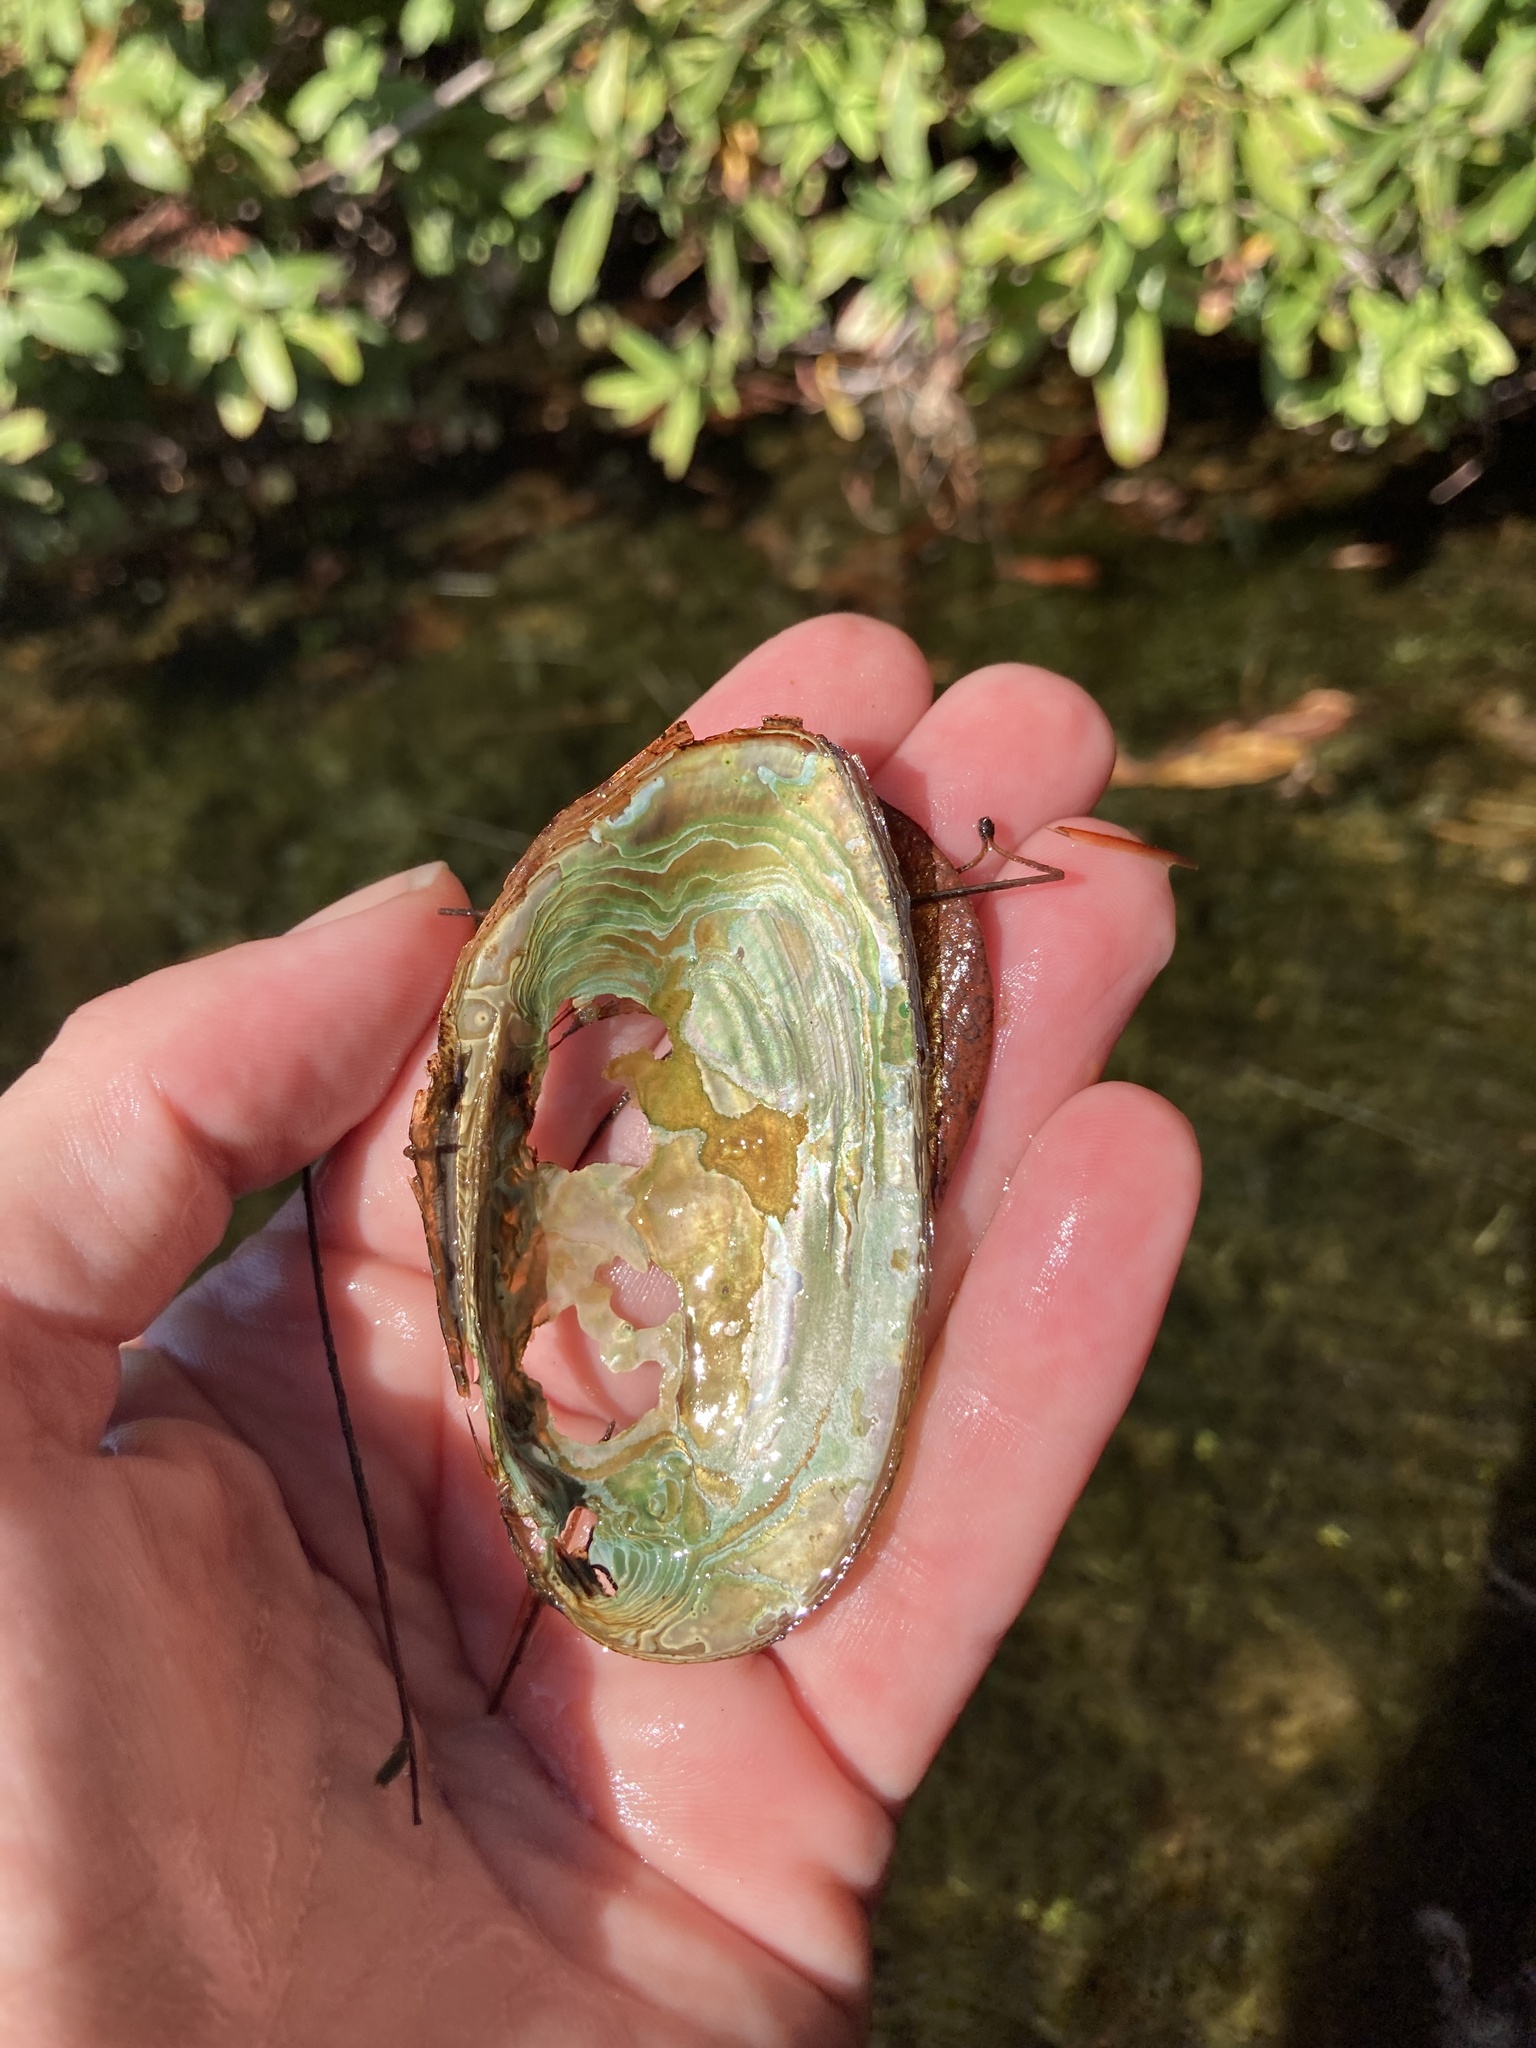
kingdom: Animalia
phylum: Mollusca
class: Bivalvia
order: Unionida
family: Unionidae
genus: Elliptio
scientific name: Elliptio complanata
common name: Eastern elliptio
